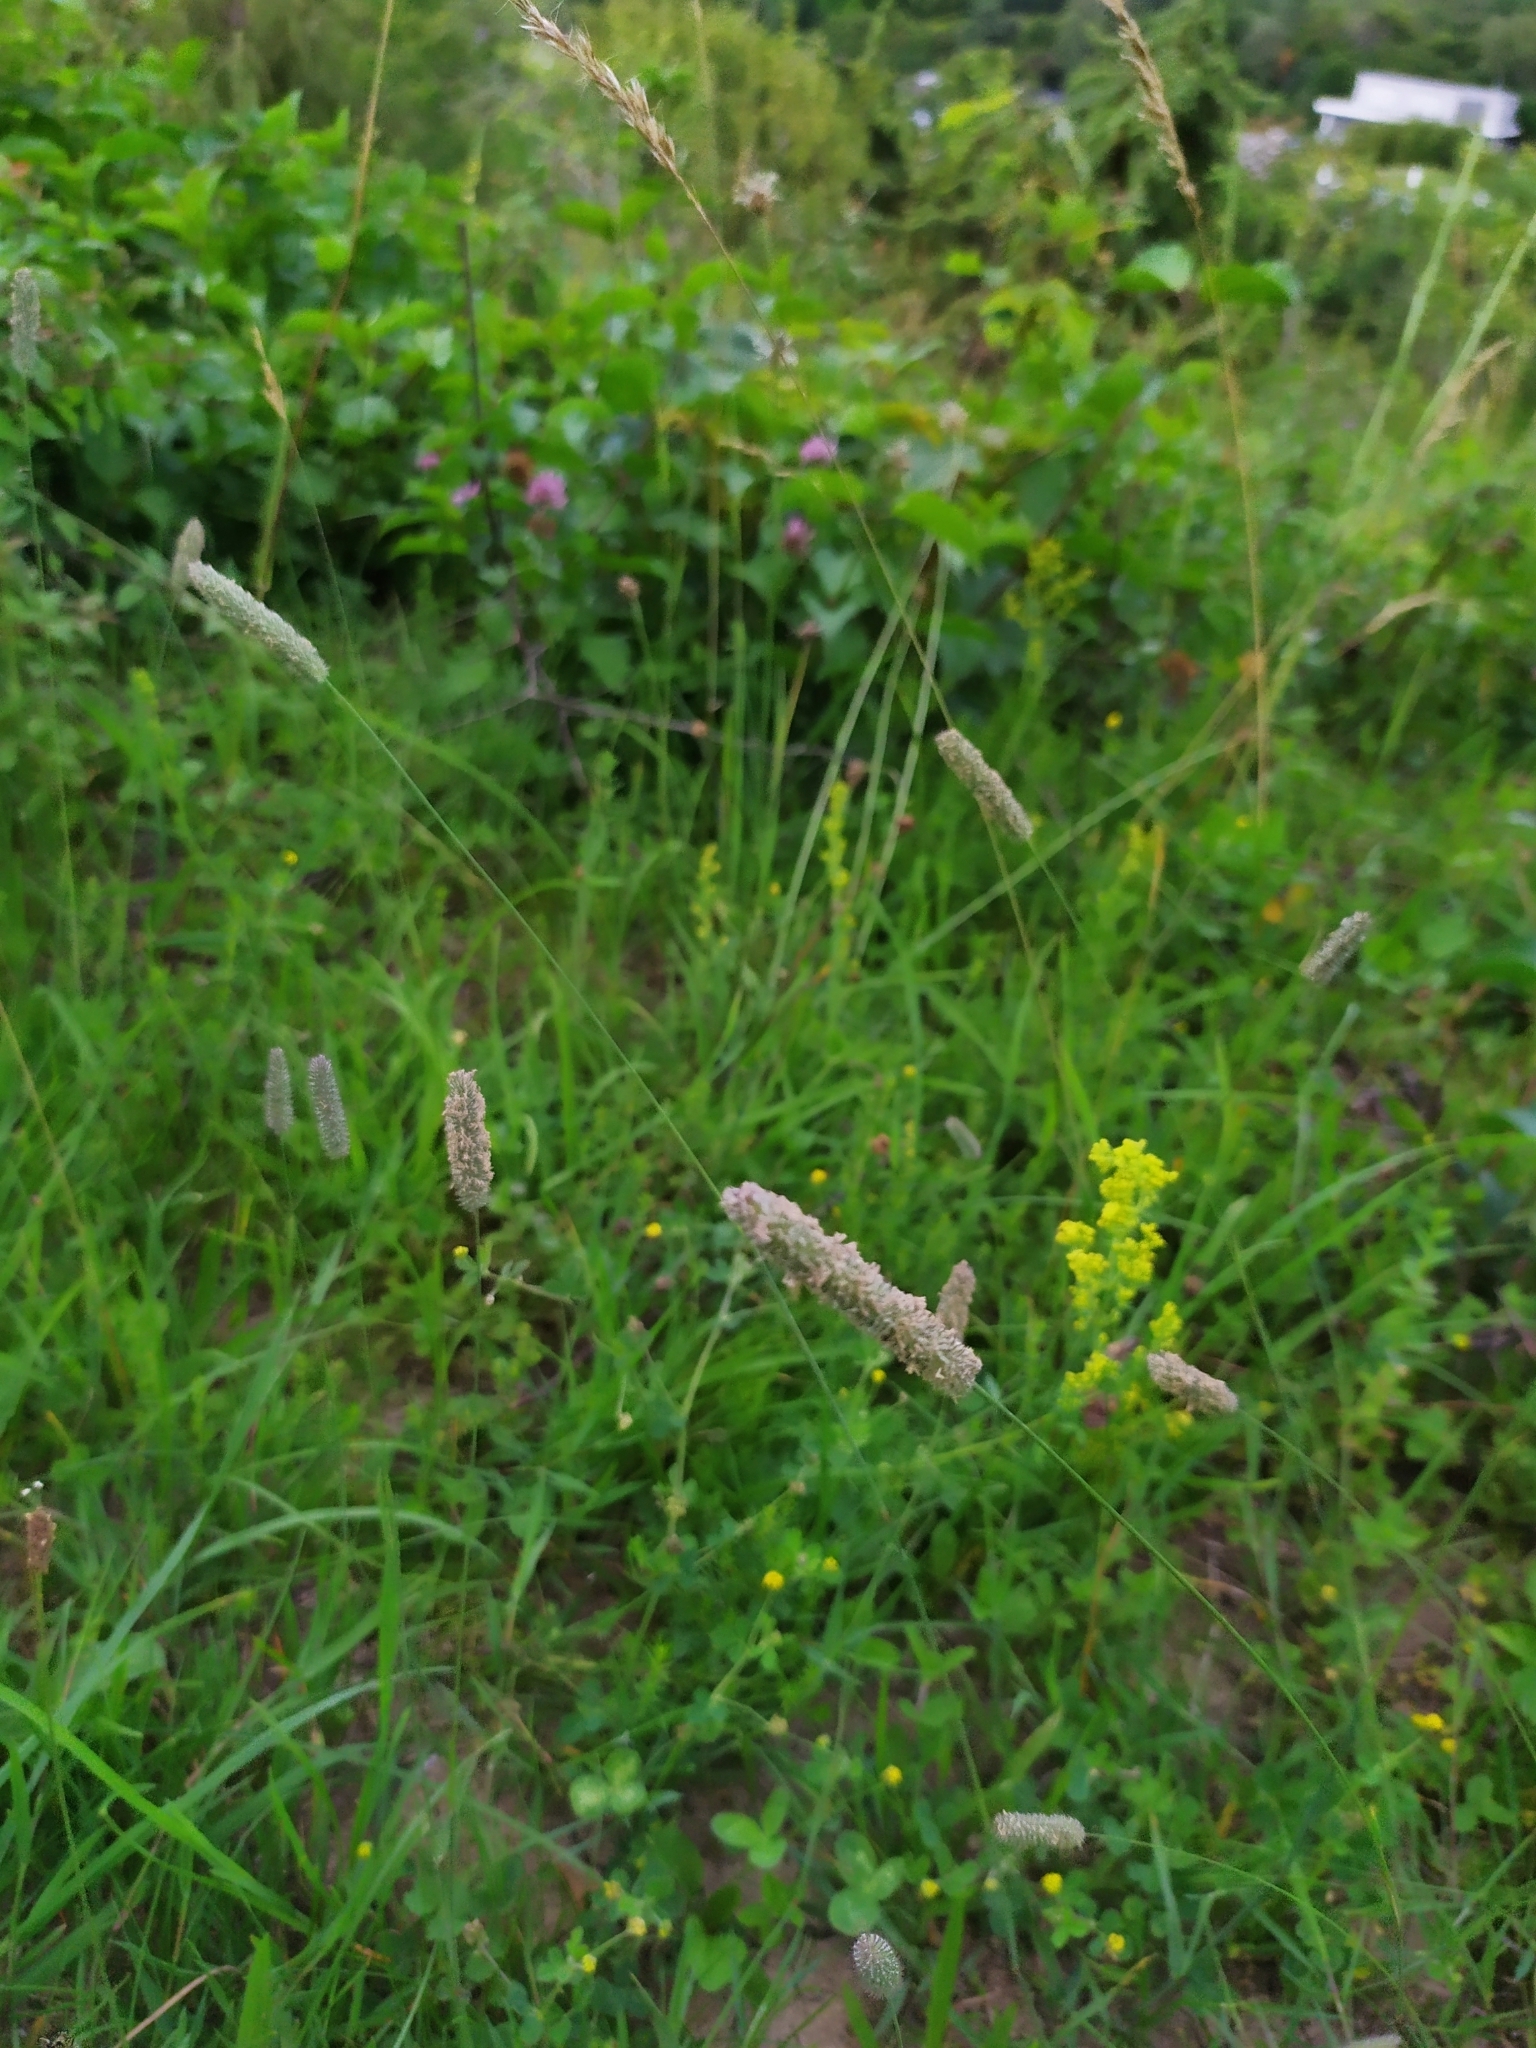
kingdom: Plantae
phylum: Tracheophyta
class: Liliopsida
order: Poales
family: Poaceae
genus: Phleum
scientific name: Phleum pratense
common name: Timothy grass
